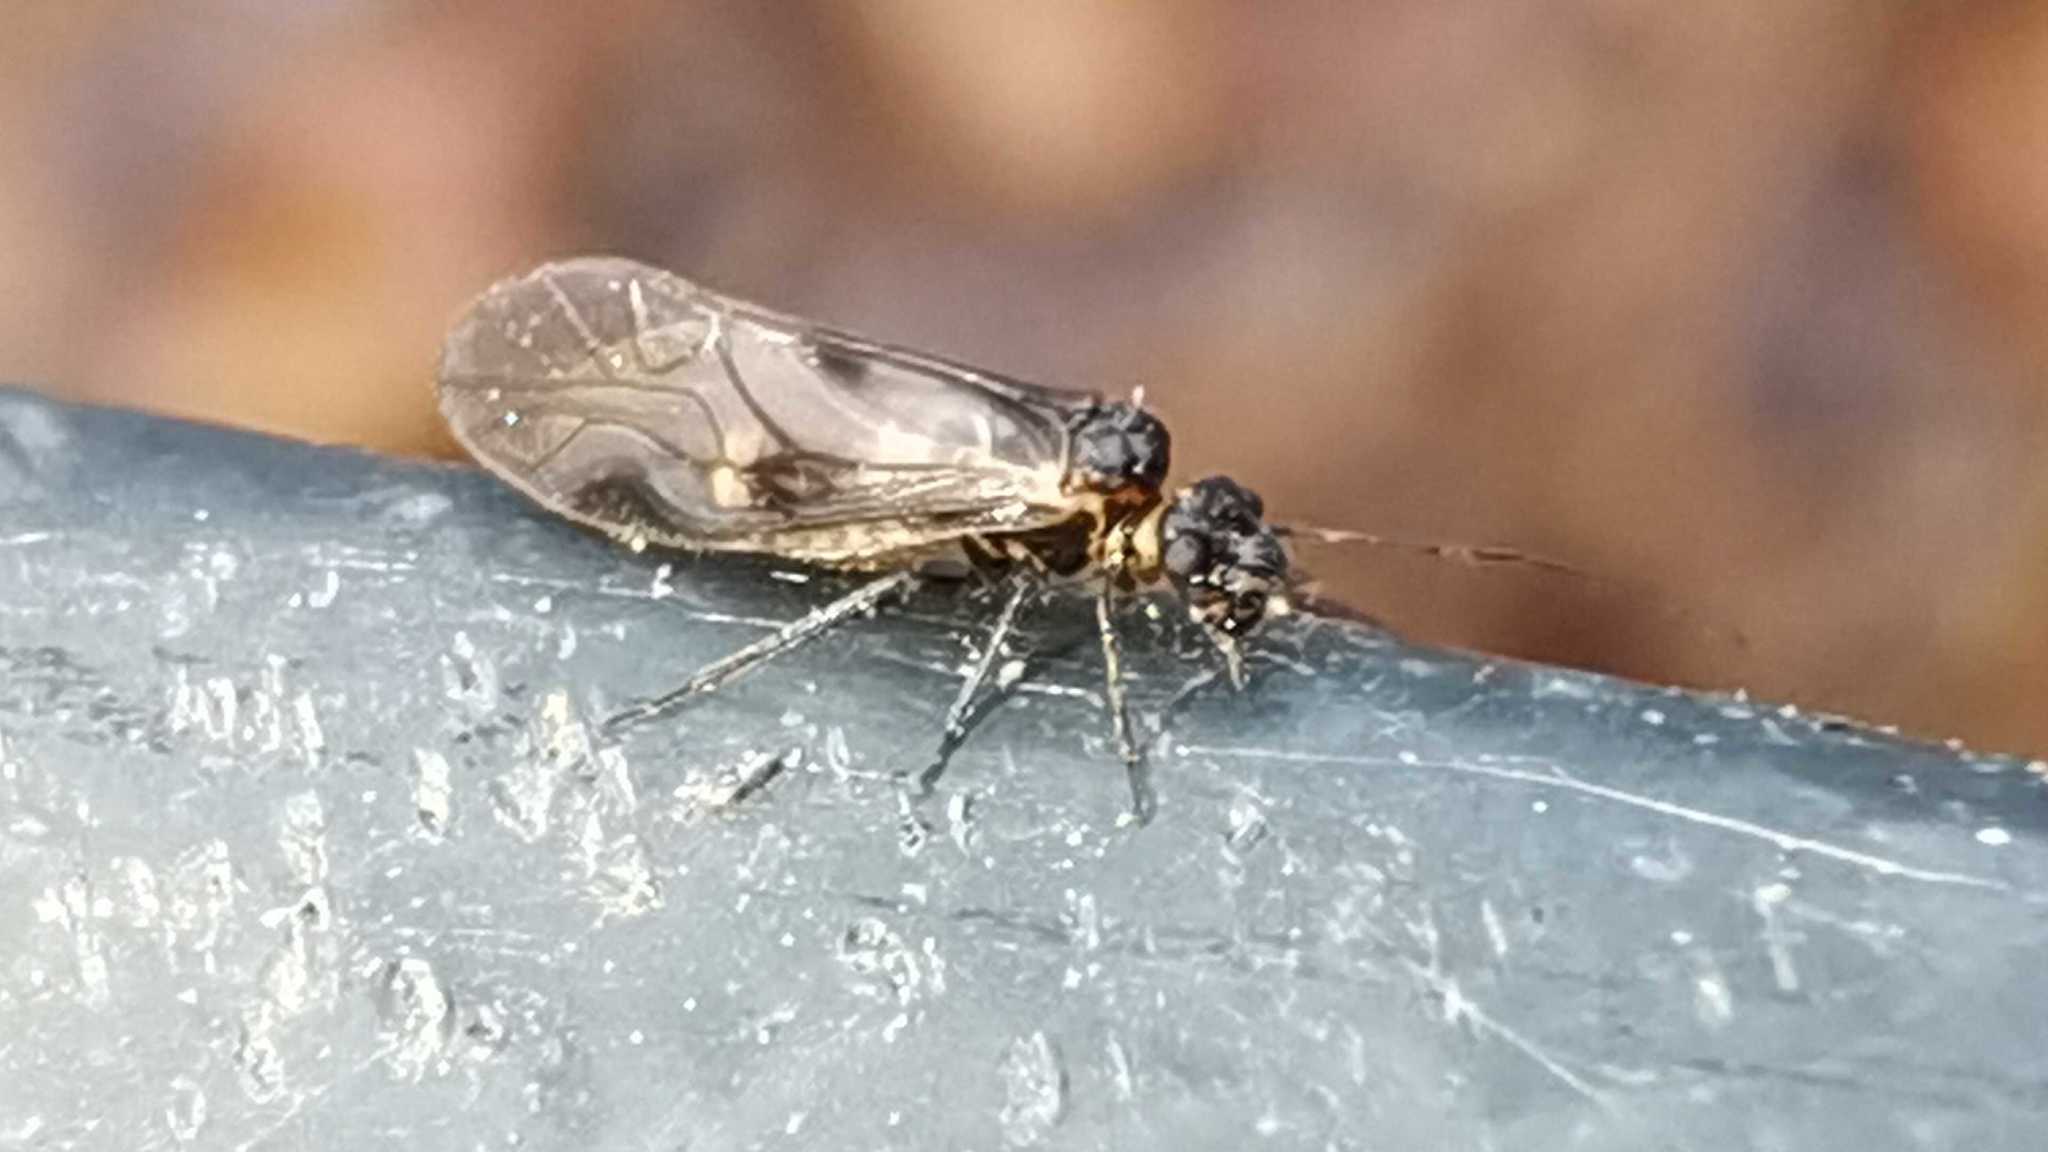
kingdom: Animalia
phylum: Arthropoda
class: Insecta
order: Psocodea
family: Elipsocidae
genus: Elipsocus
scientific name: Elipsocus hyalinus
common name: Bark lice
